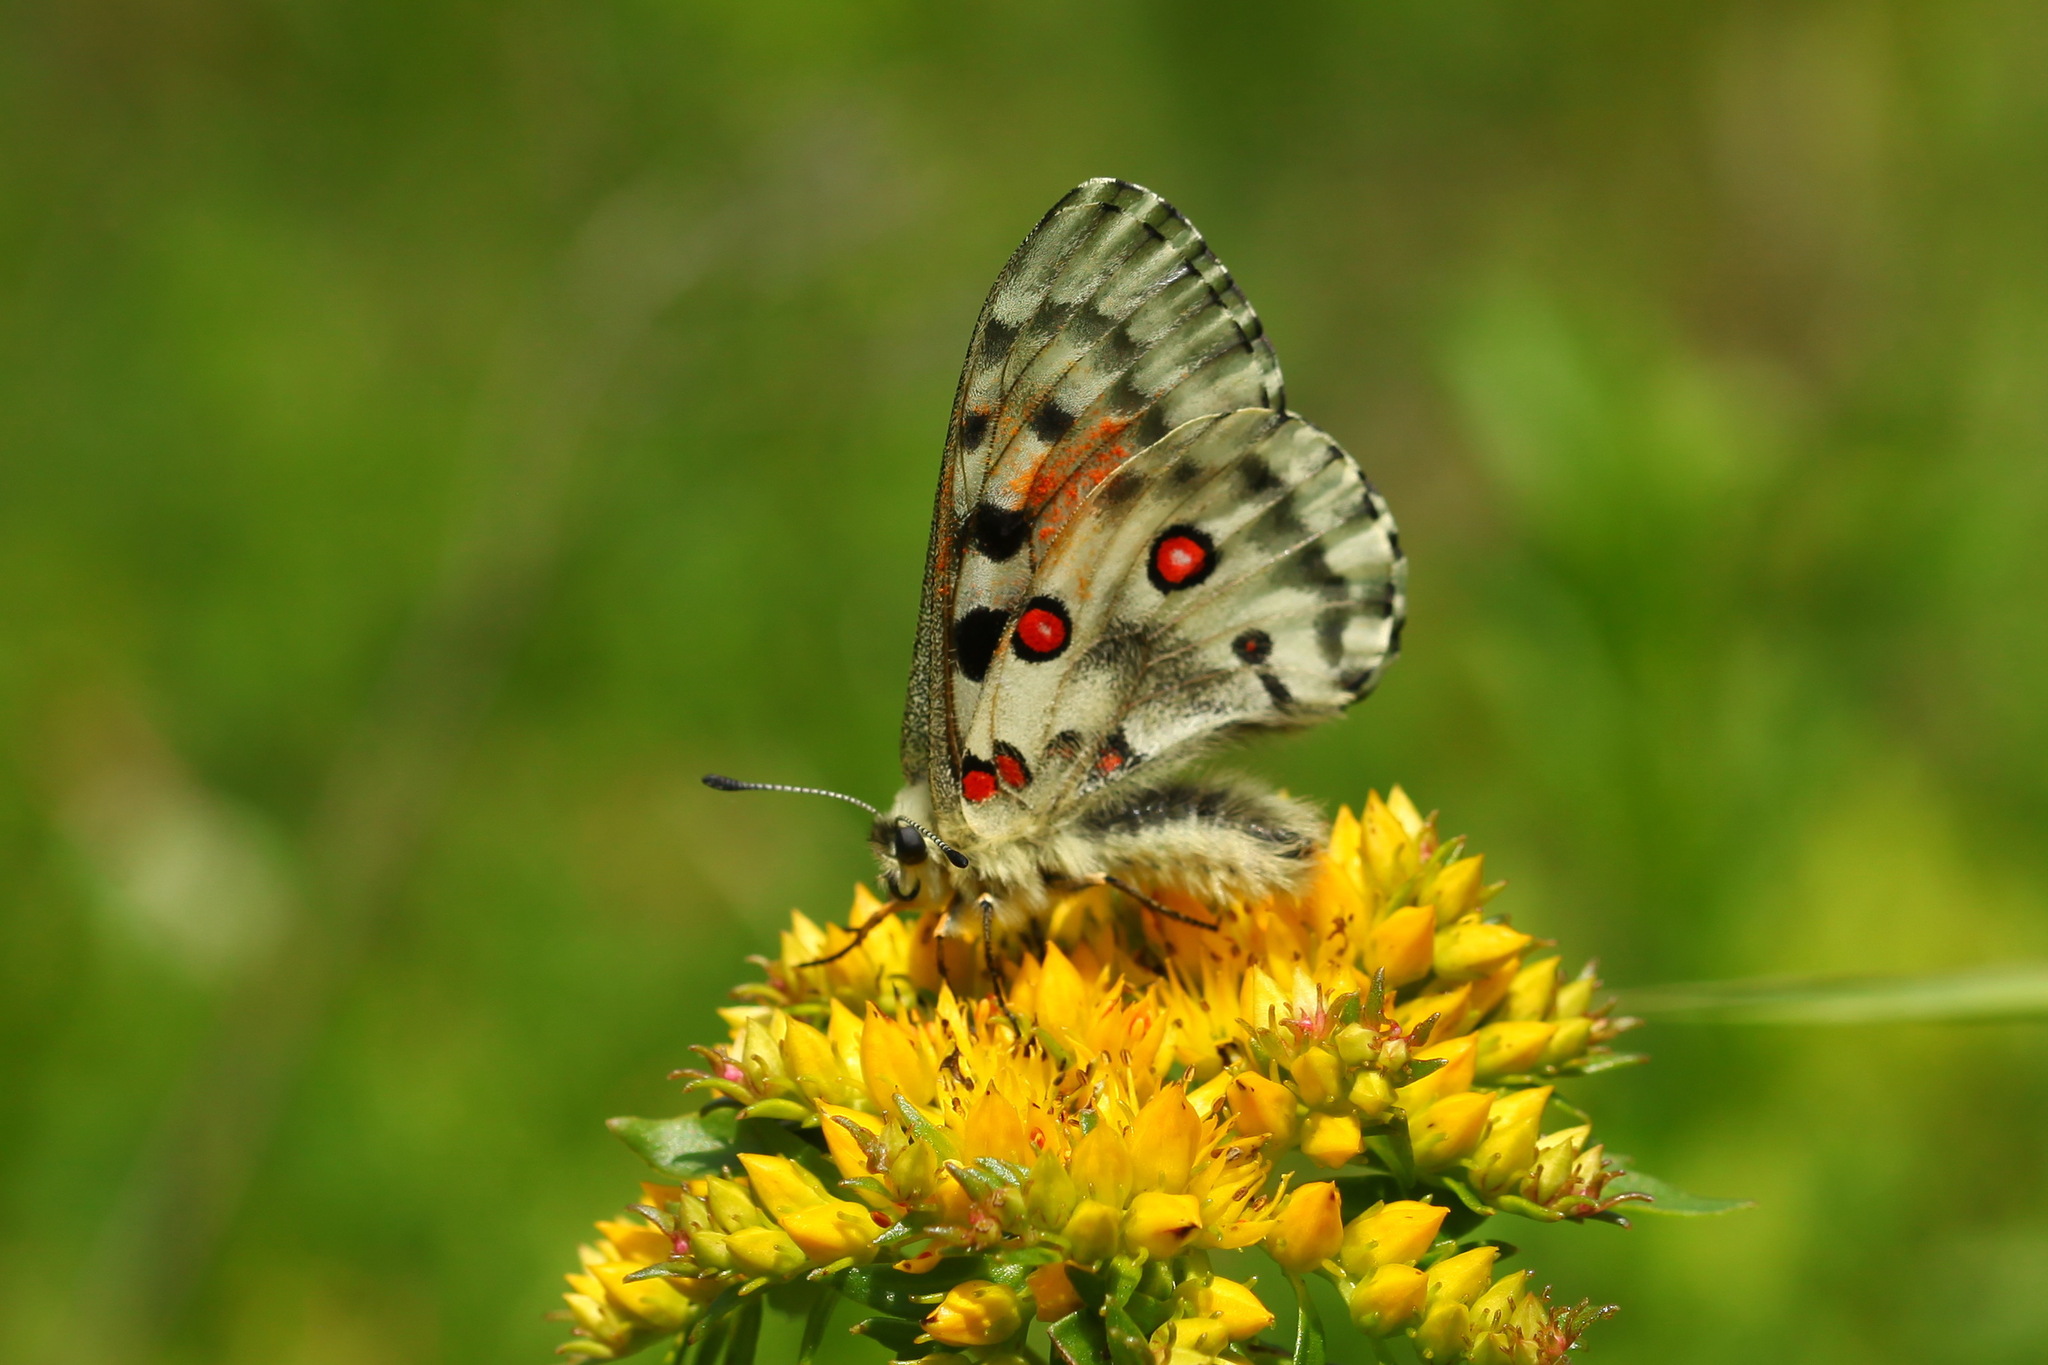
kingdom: Animalia
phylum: Arthropoda
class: Insecta
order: Lepidoptera
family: Papilionidae
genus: Parnassius
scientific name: Parnassius nomion
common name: Nomion apollo
